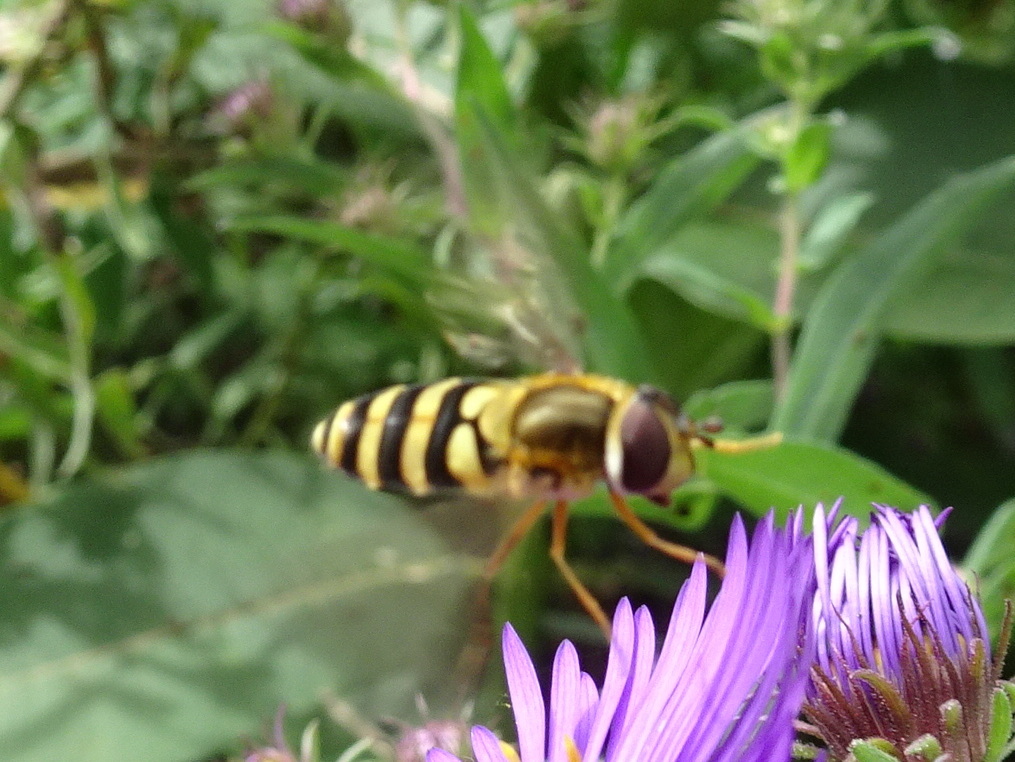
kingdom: Animalia
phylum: Arthropoda
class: Insecta
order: Diptera
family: Syrphidae
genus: Syrphus
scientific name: Syrphus ribesii
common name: Common flower fly
